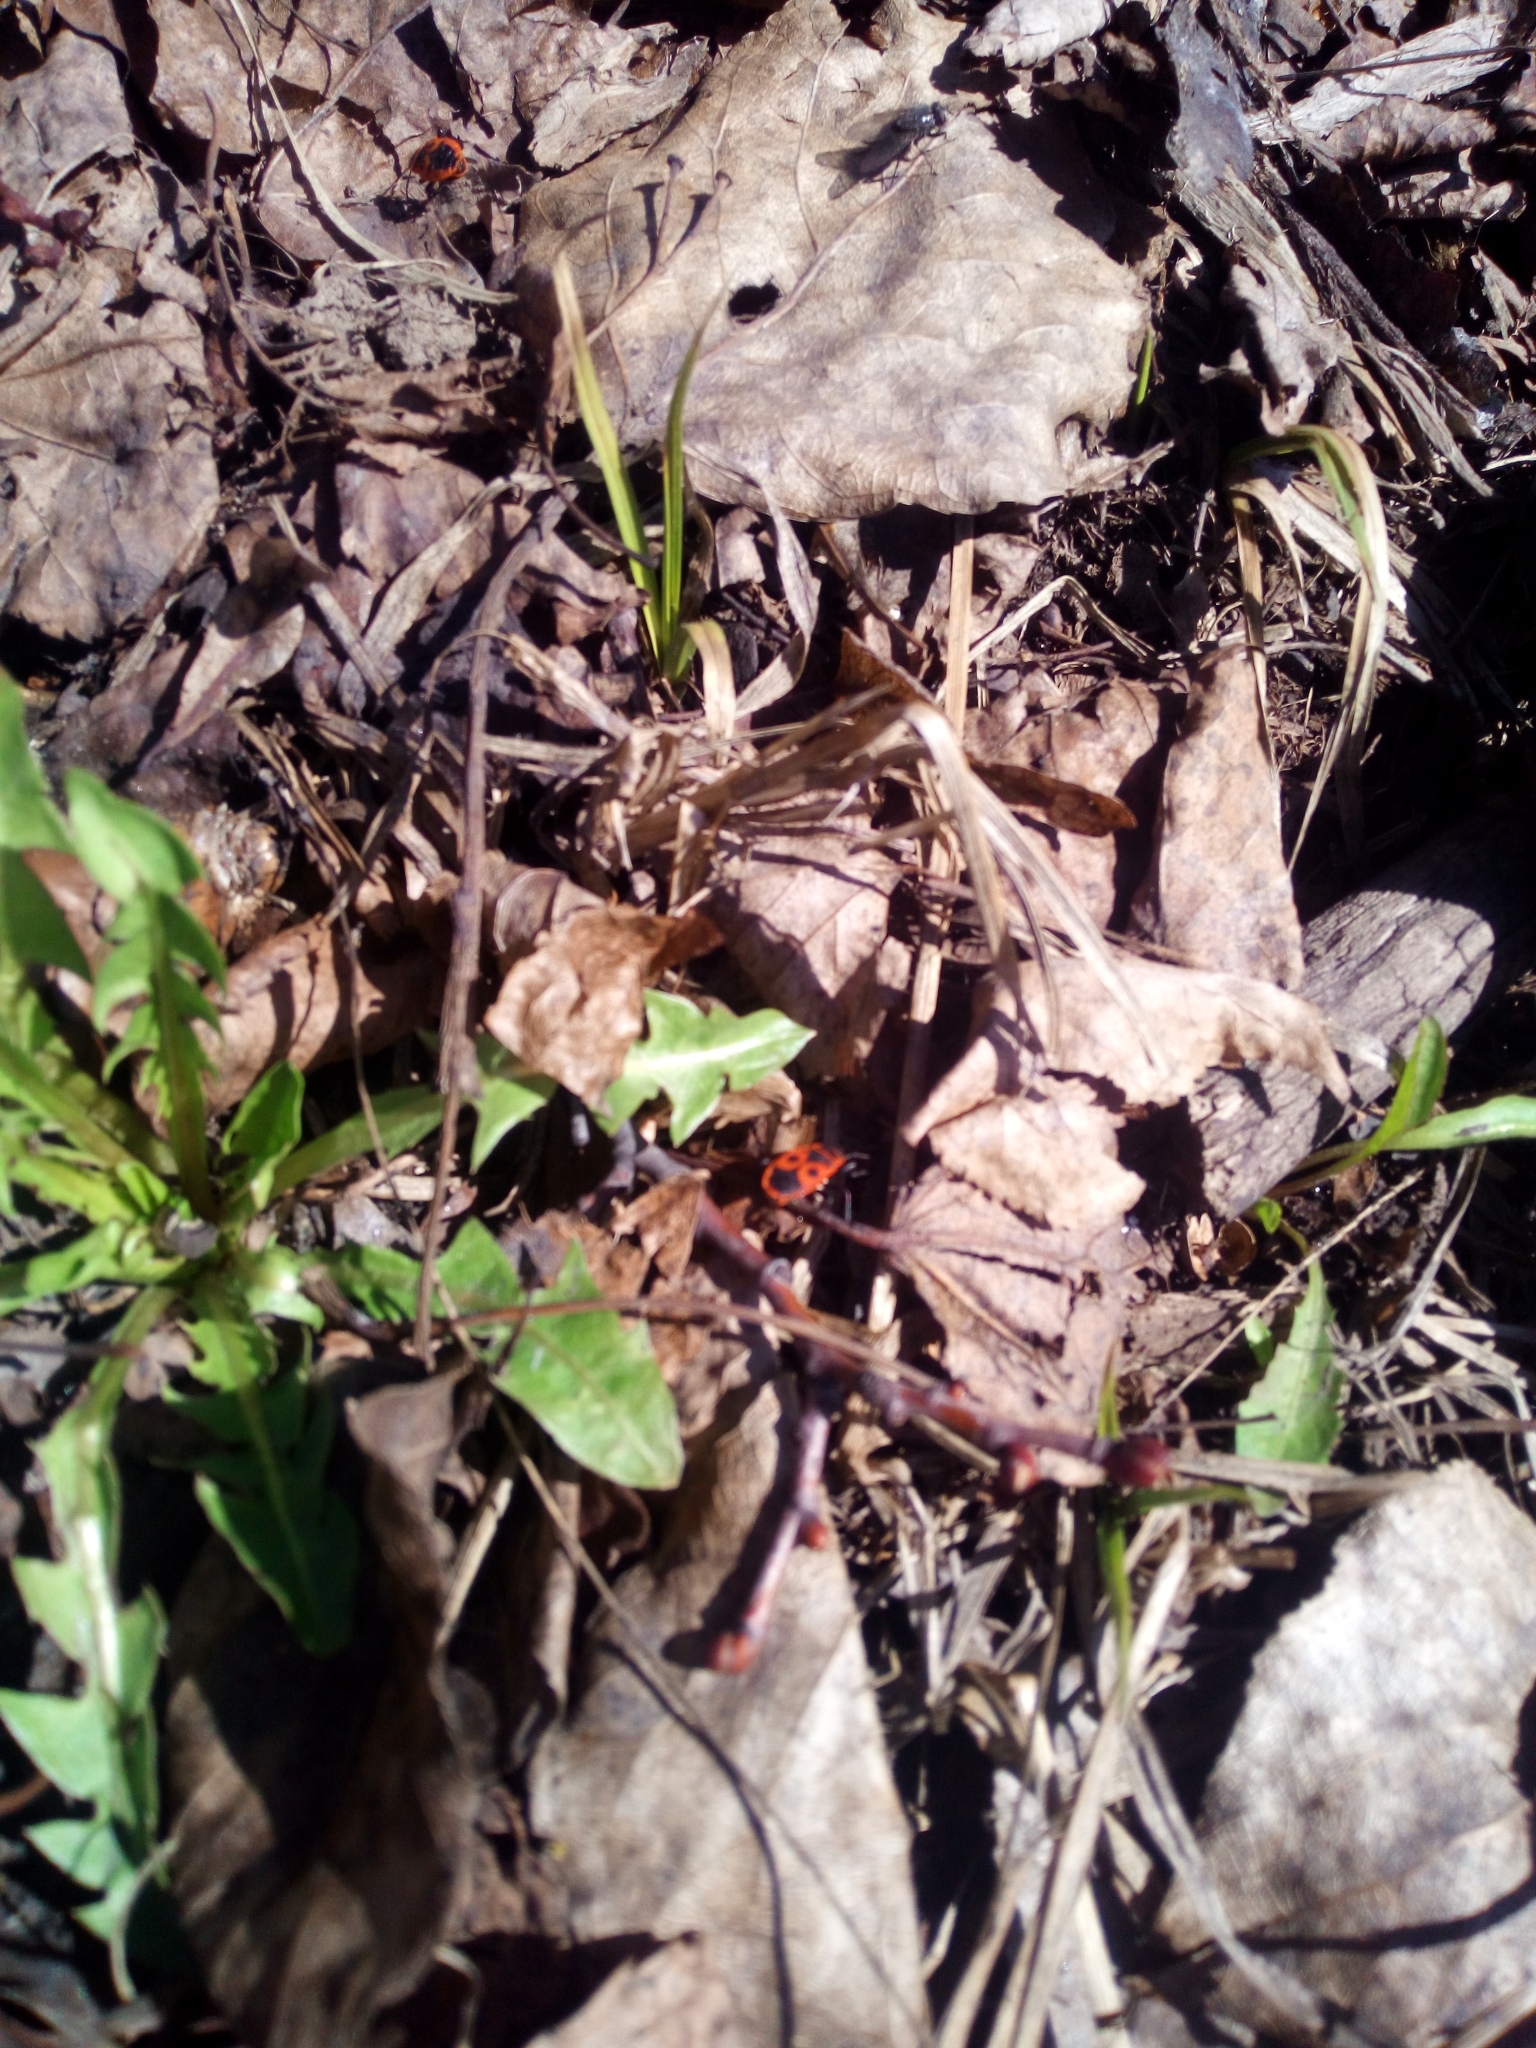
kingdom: Animalia
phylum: Arthropoda
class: Insecta
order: Hemiptera
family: Pyrrhocoridae
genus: Pyrrhocoris
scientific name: Pyrrhocoris apterus
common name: Firebug
